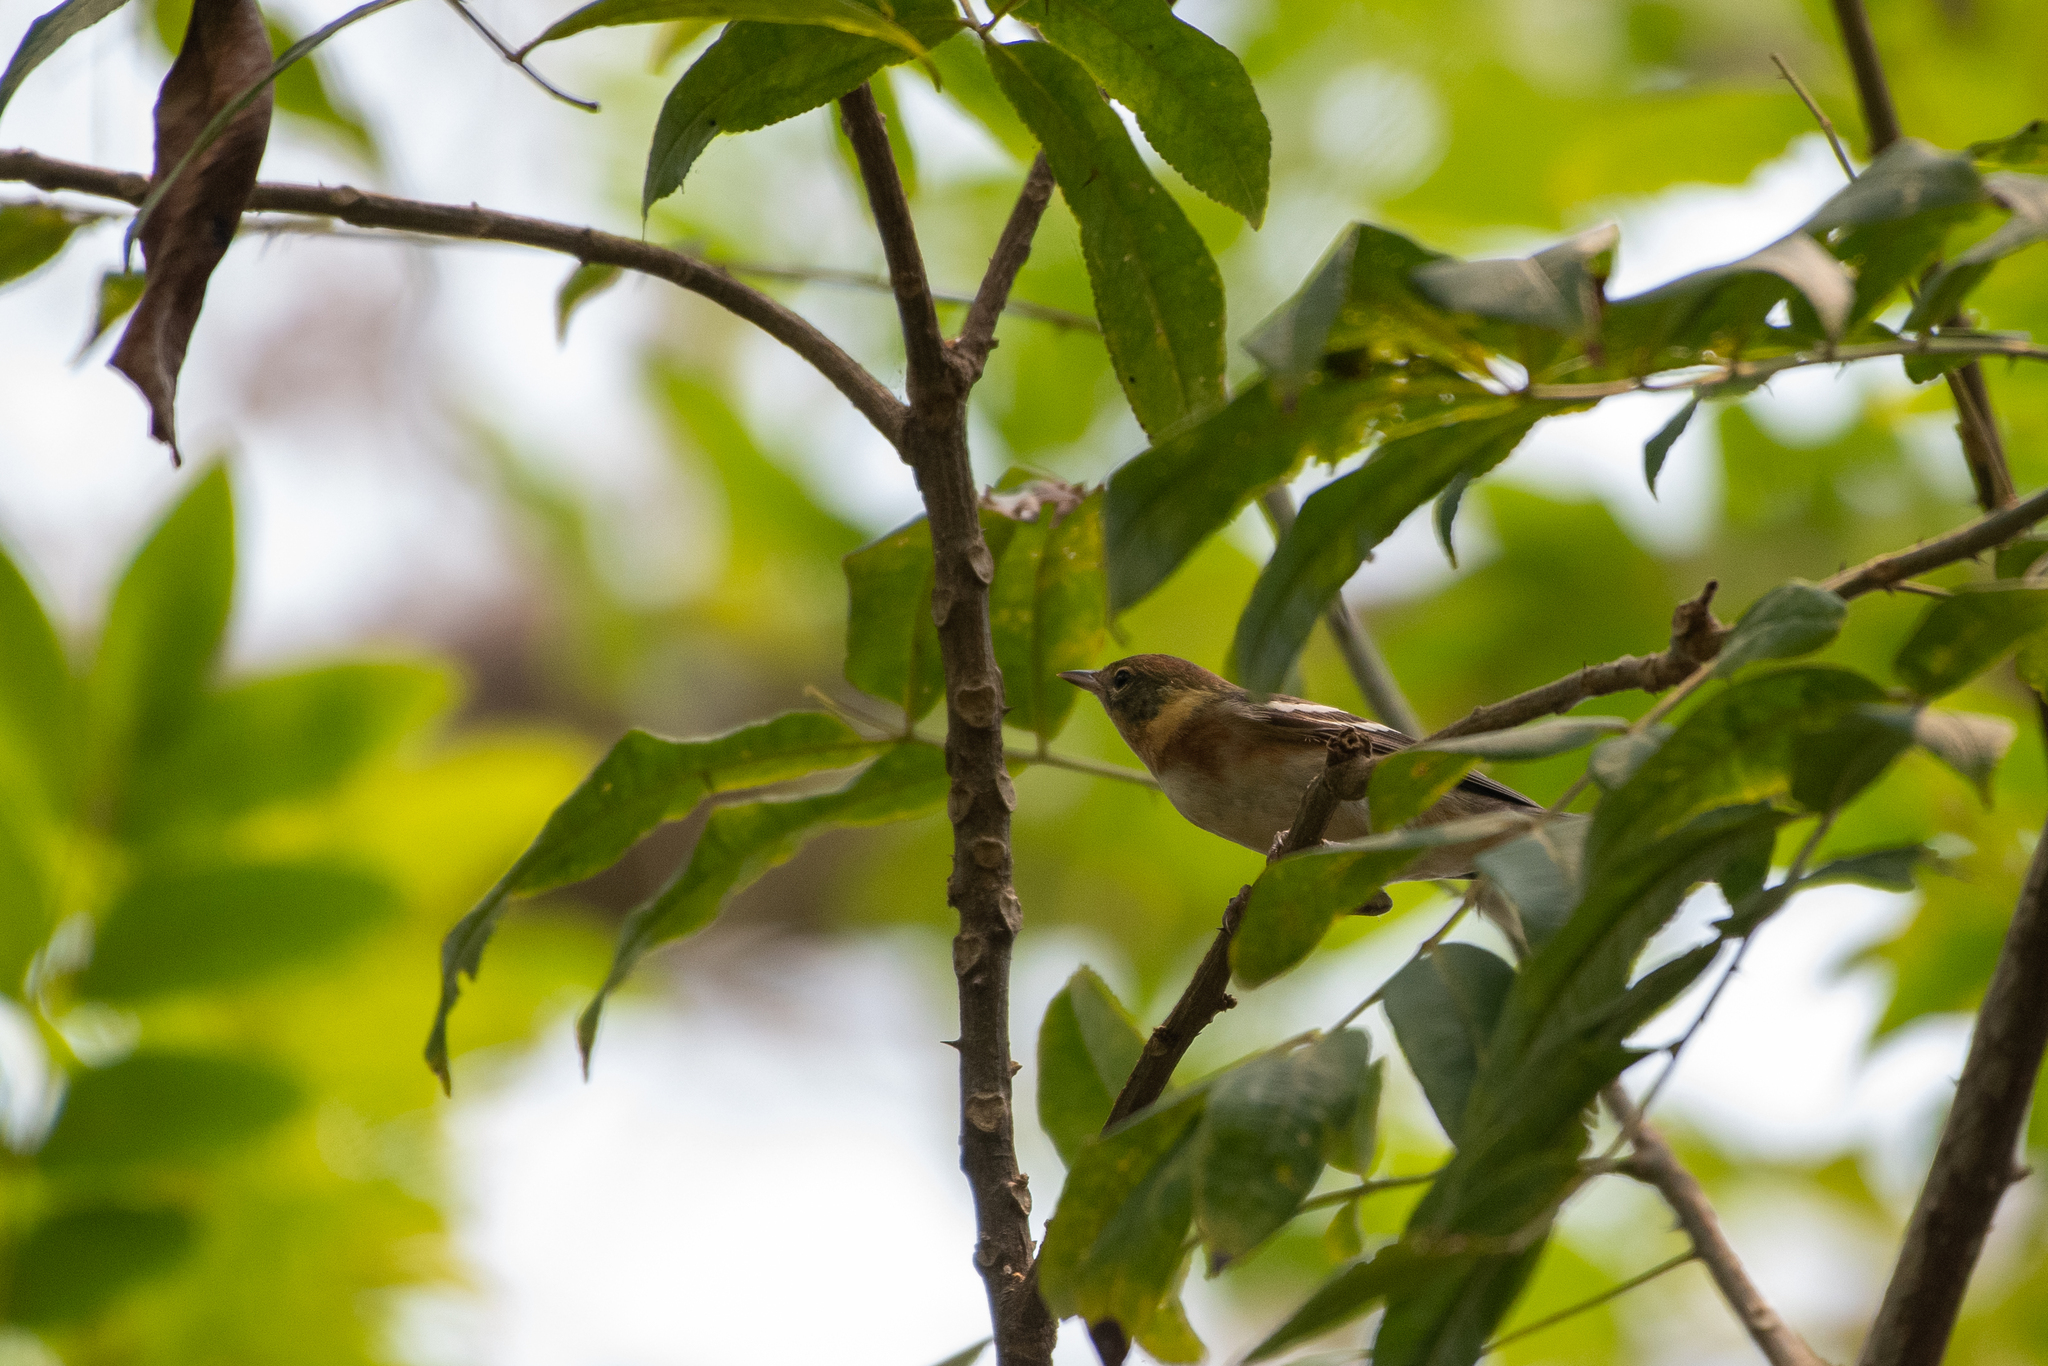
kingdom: Animalia
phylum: Chordata
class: Aves
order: Passeriformes
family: Parulidae
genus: Setophaga
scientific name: Setophaga castanea
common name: Bay-breasted warbler
